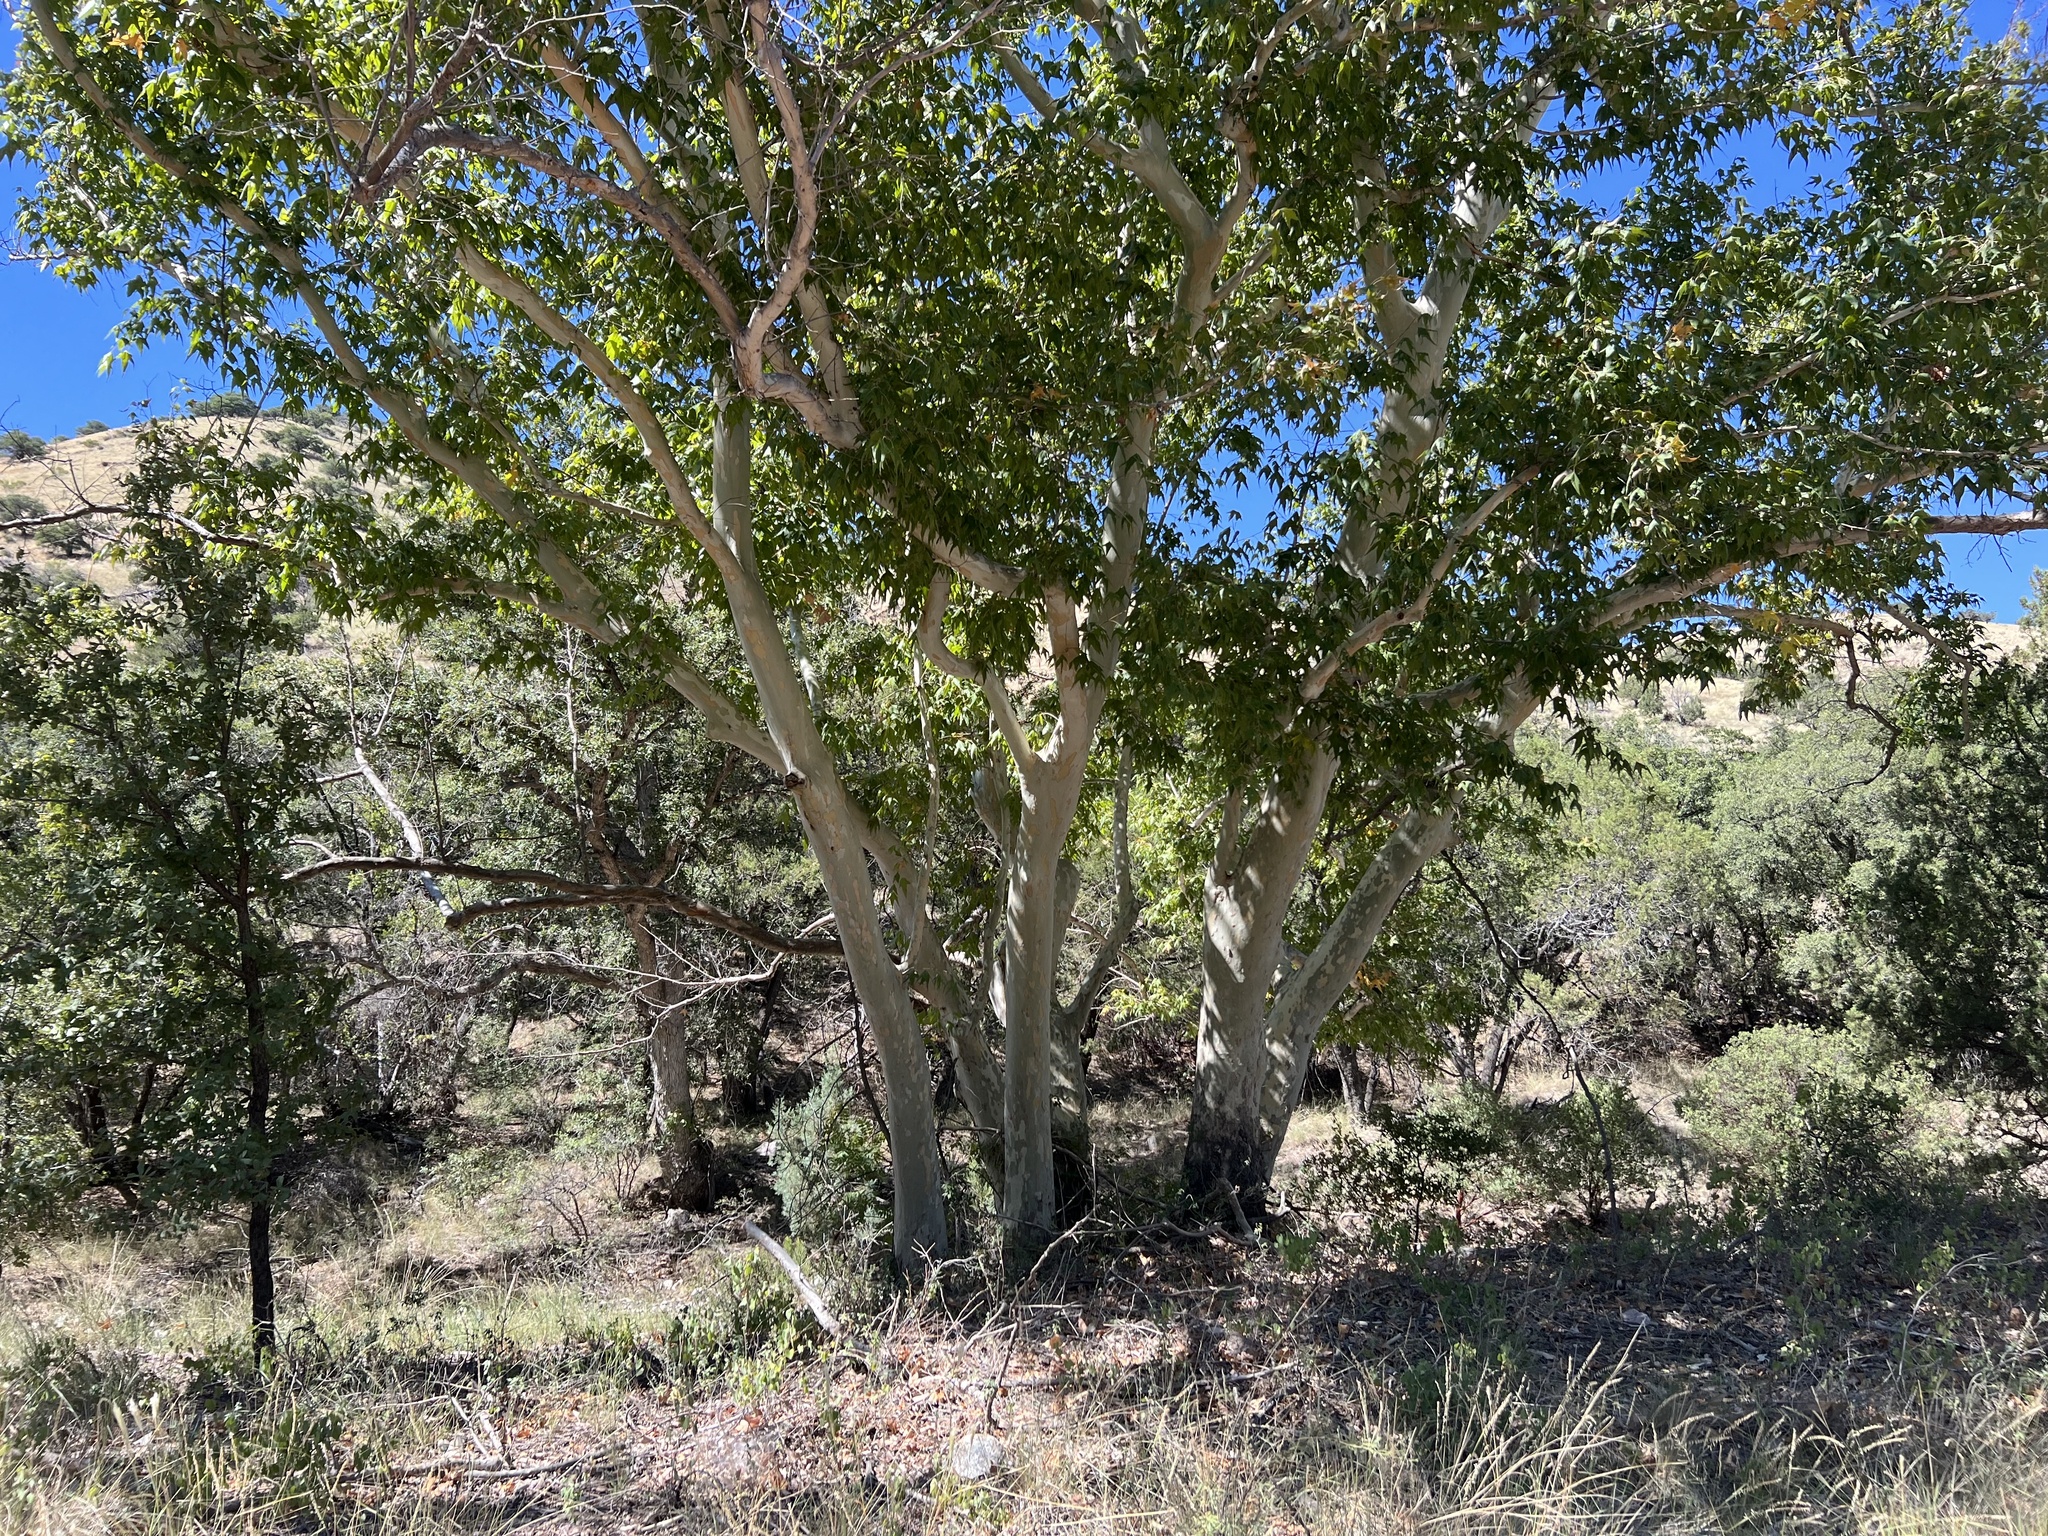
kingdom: Plantae
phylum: Tracheophyta
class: Magnoliopsida
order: Proteales
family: Platanaceae
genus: Platanus
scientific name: Platanus wrightii
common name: Arizona sycamore
